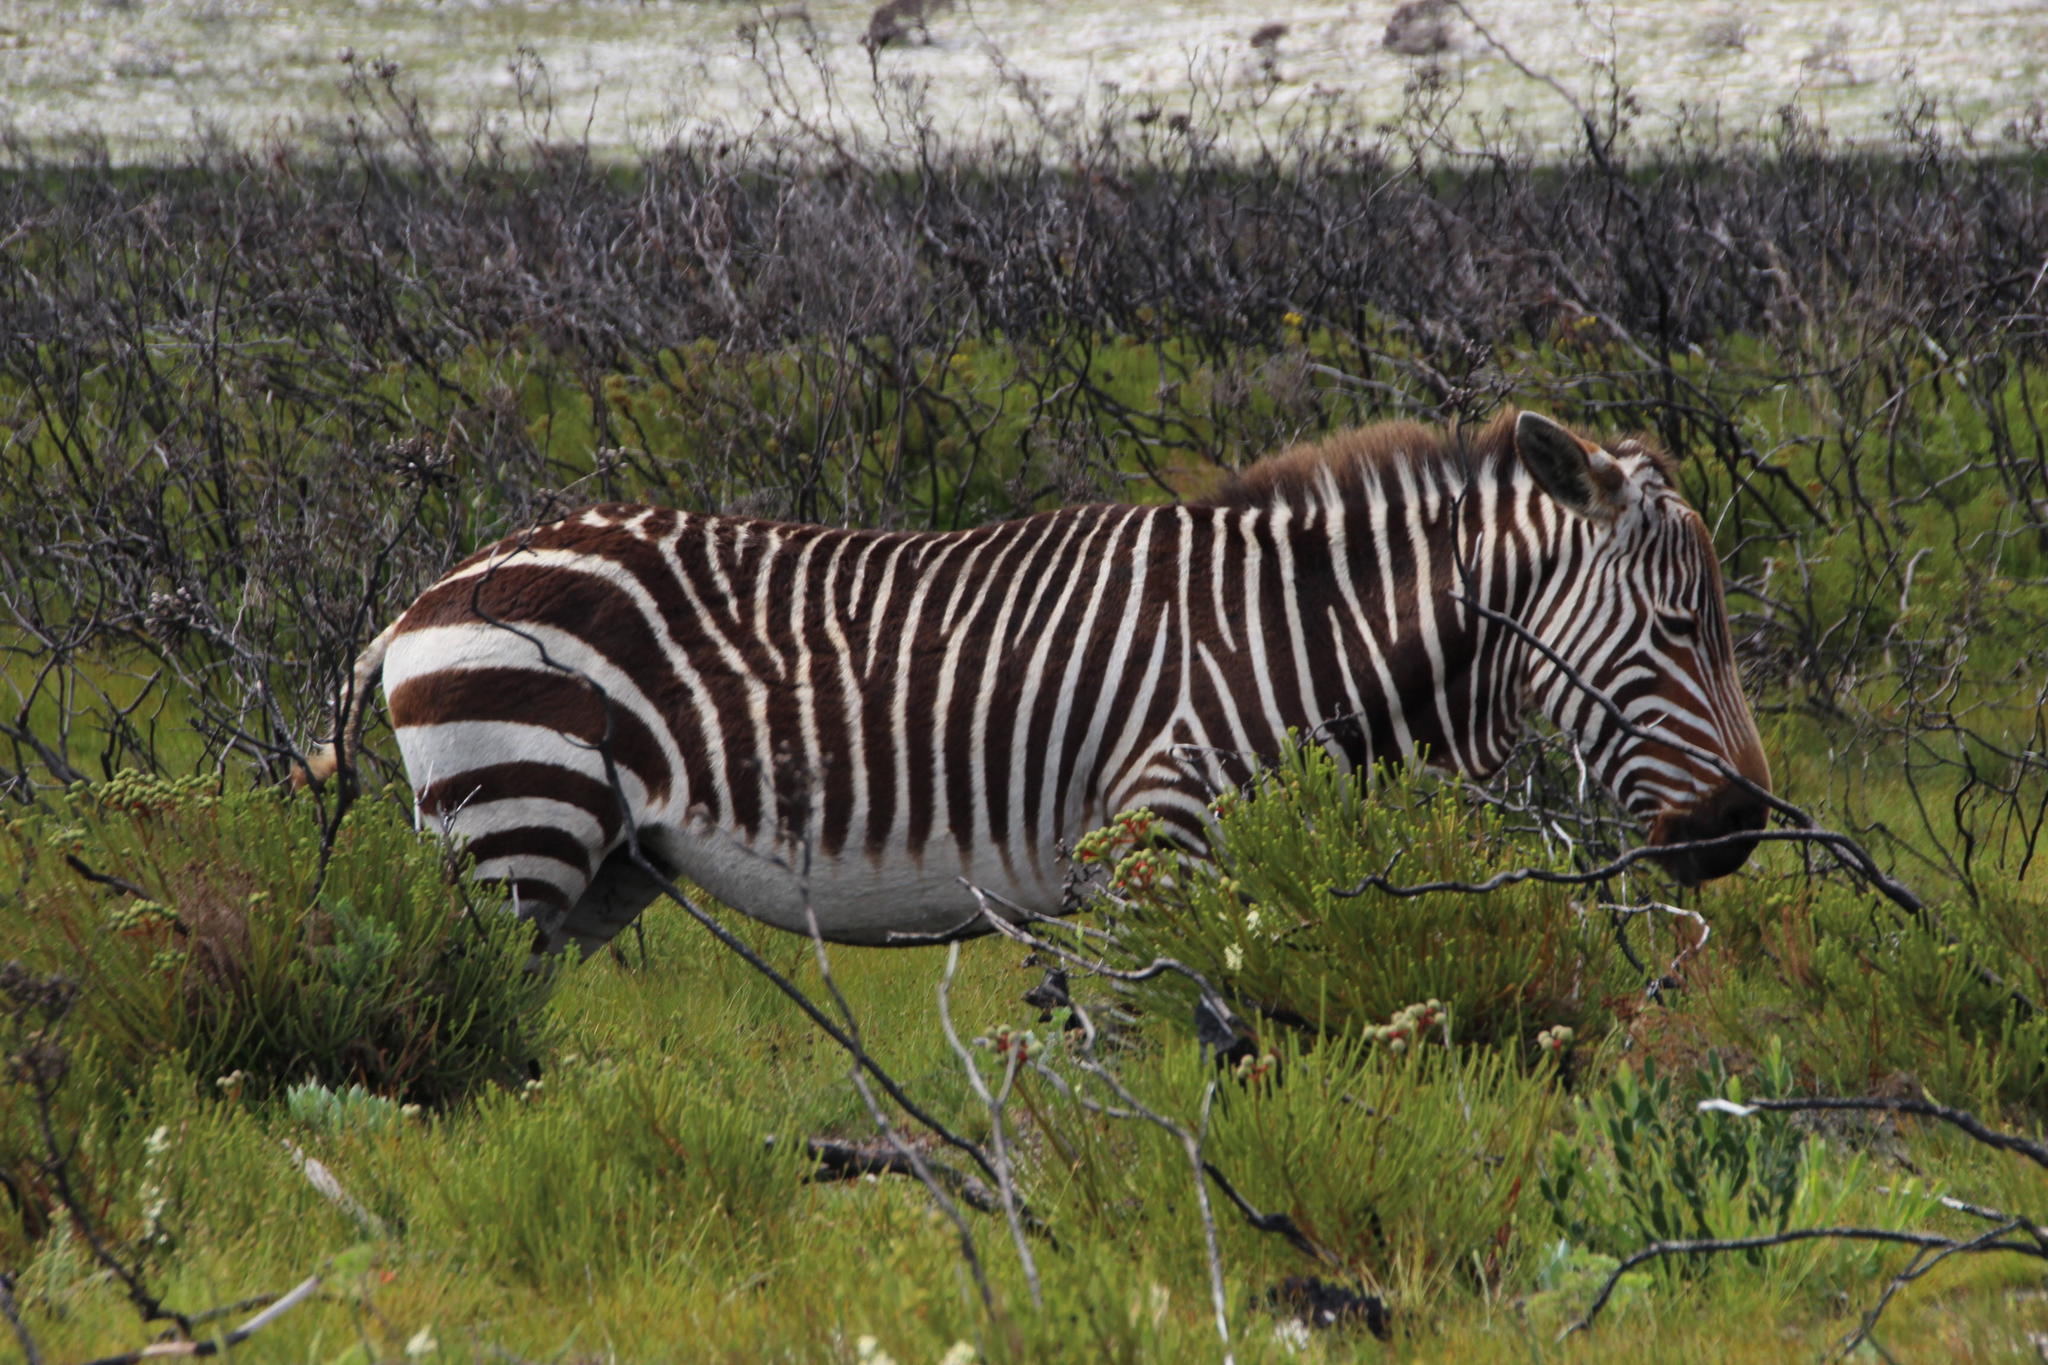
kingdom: Animalia
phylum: Chordata
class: Mammalia
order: Perissodactyla
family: Equidae
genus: Equus
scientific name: Equus zebra
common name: Mountain zebra
